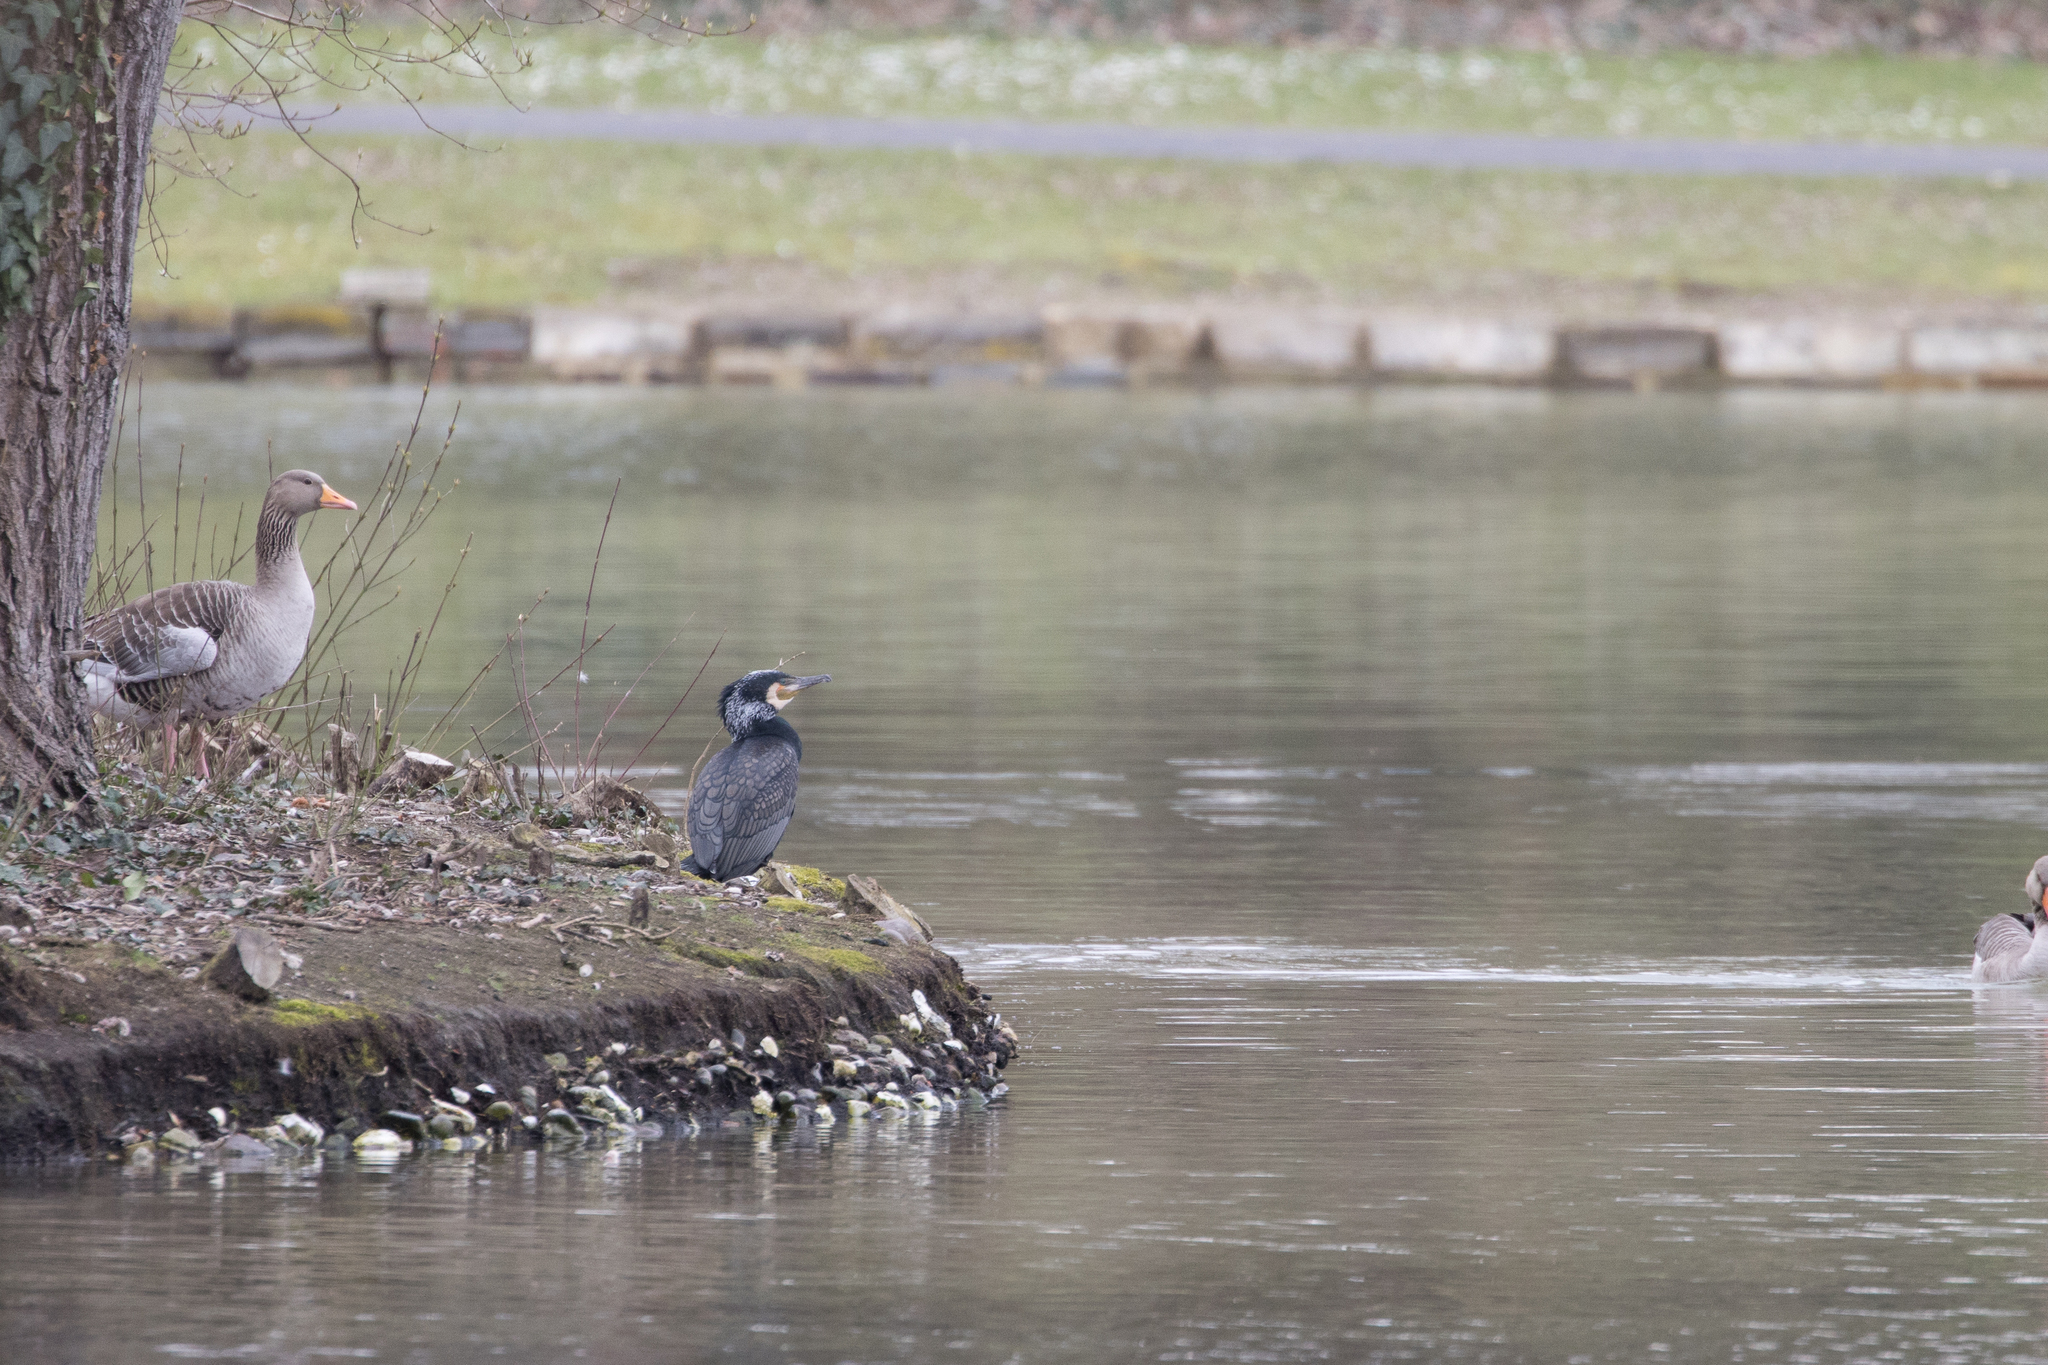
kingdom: Animalia
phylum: Chordata
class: Aves
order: Suliformes
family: Phalacrocoracidae
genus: Phalacrocorax
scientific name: Phalacrocorax carbo
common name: Great cormorant
